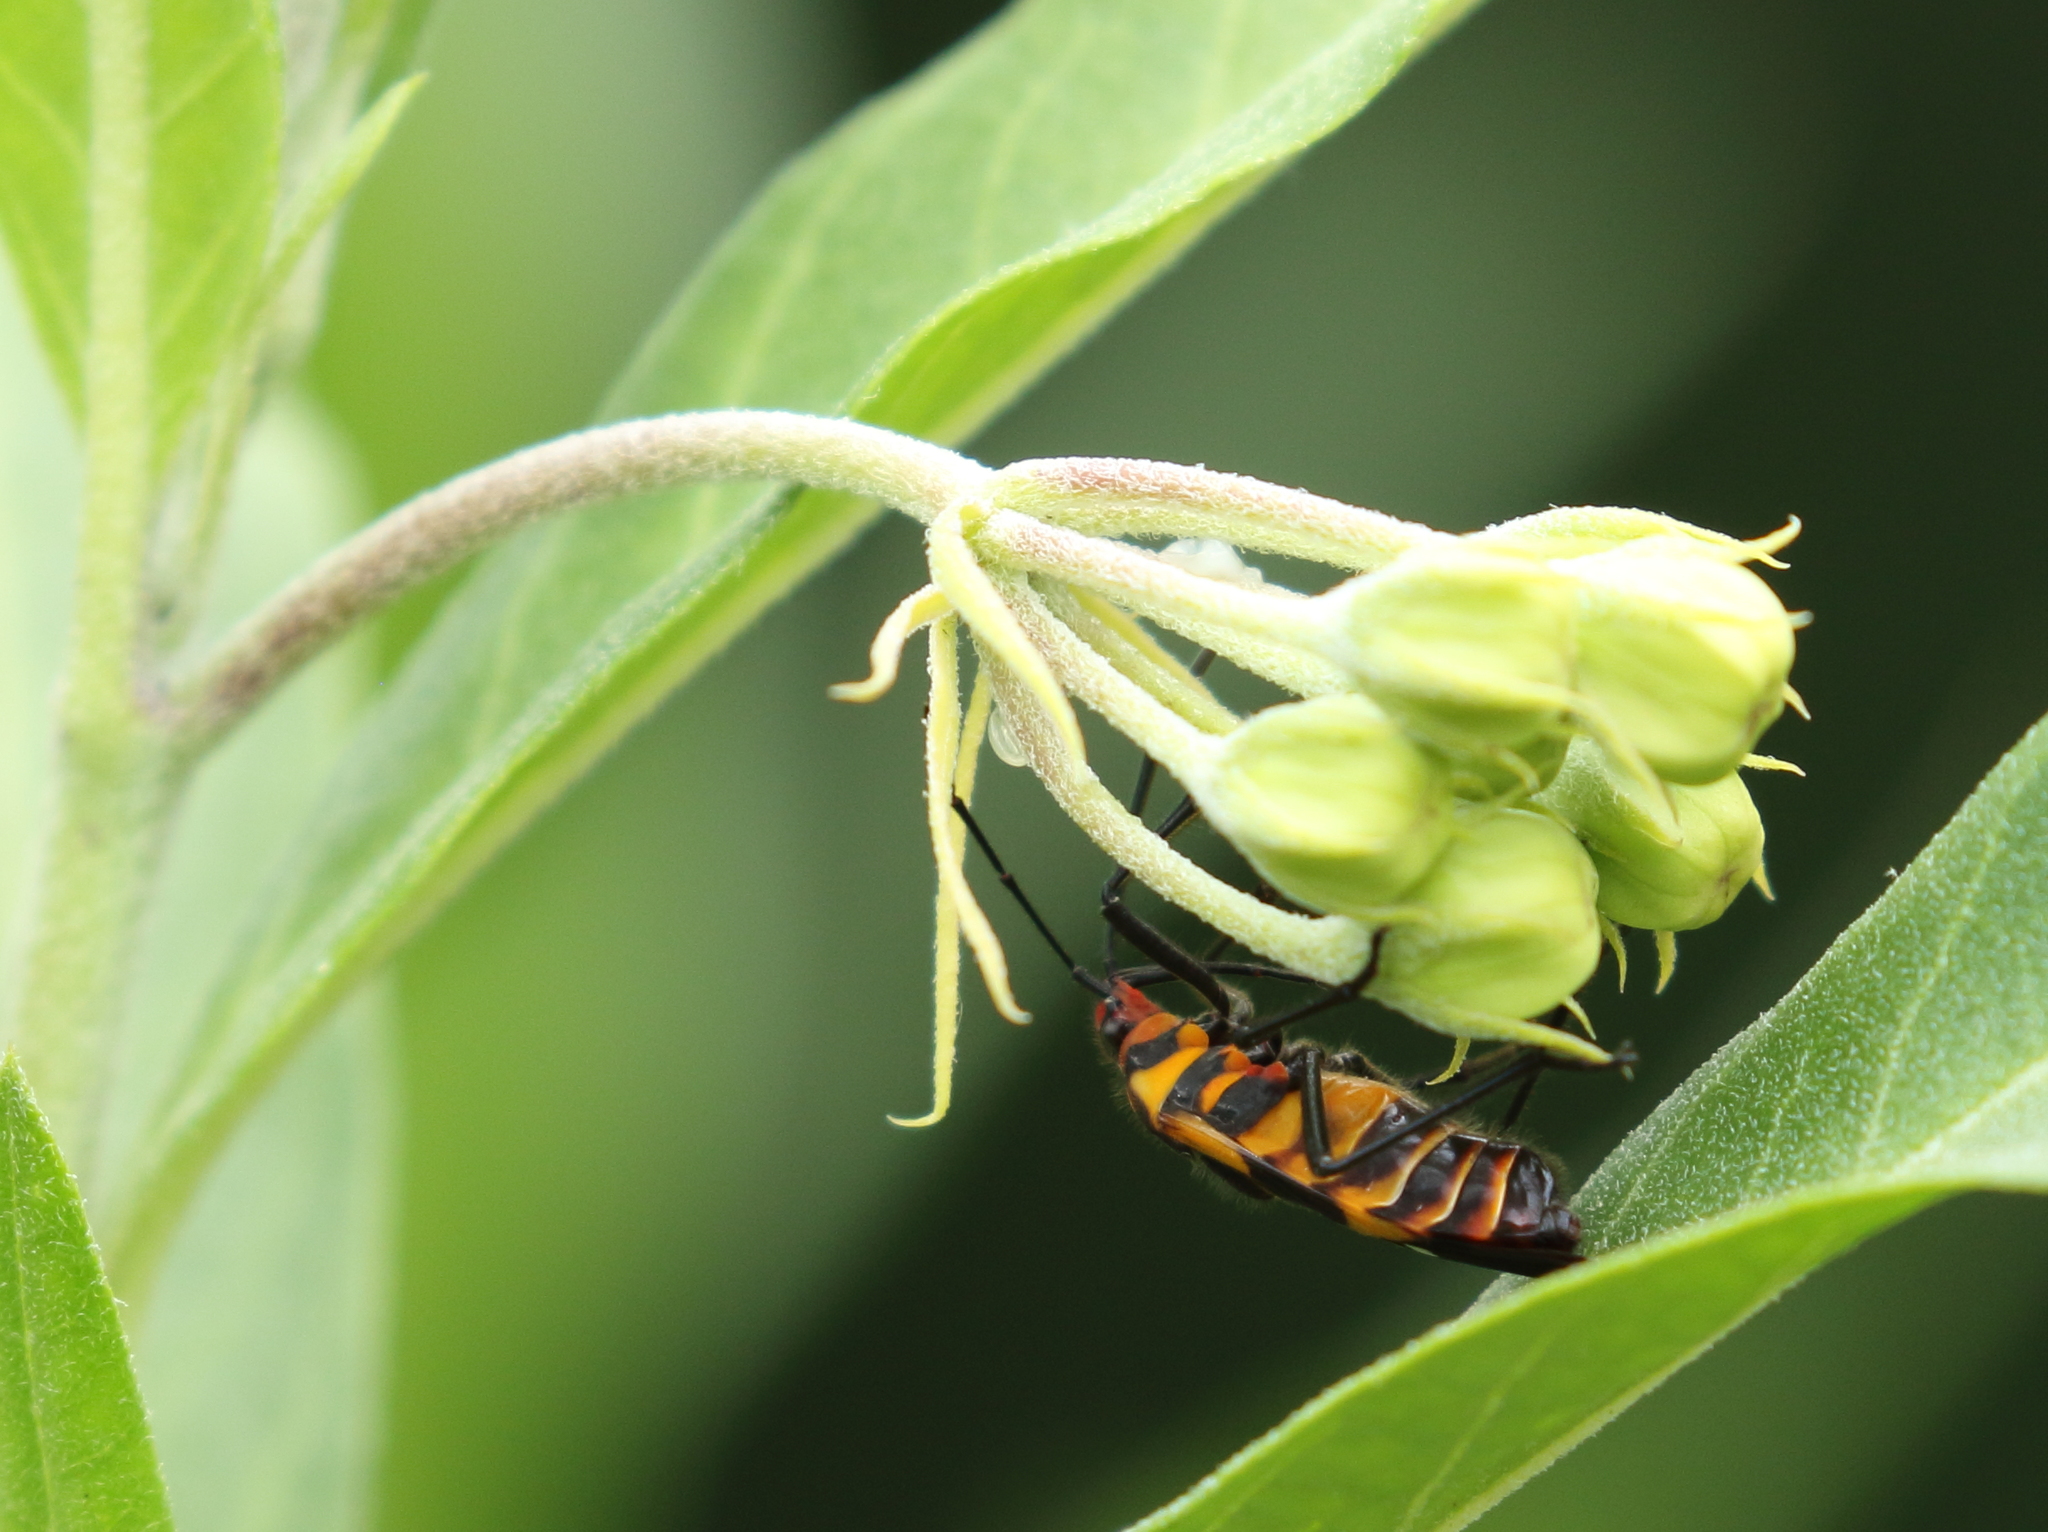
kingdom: Animalia
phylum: Arthropoda
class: Insecta
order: Hemiptera
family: Lygaeidae
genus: Oncopeltus
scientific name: Oncopeltus famelicus
